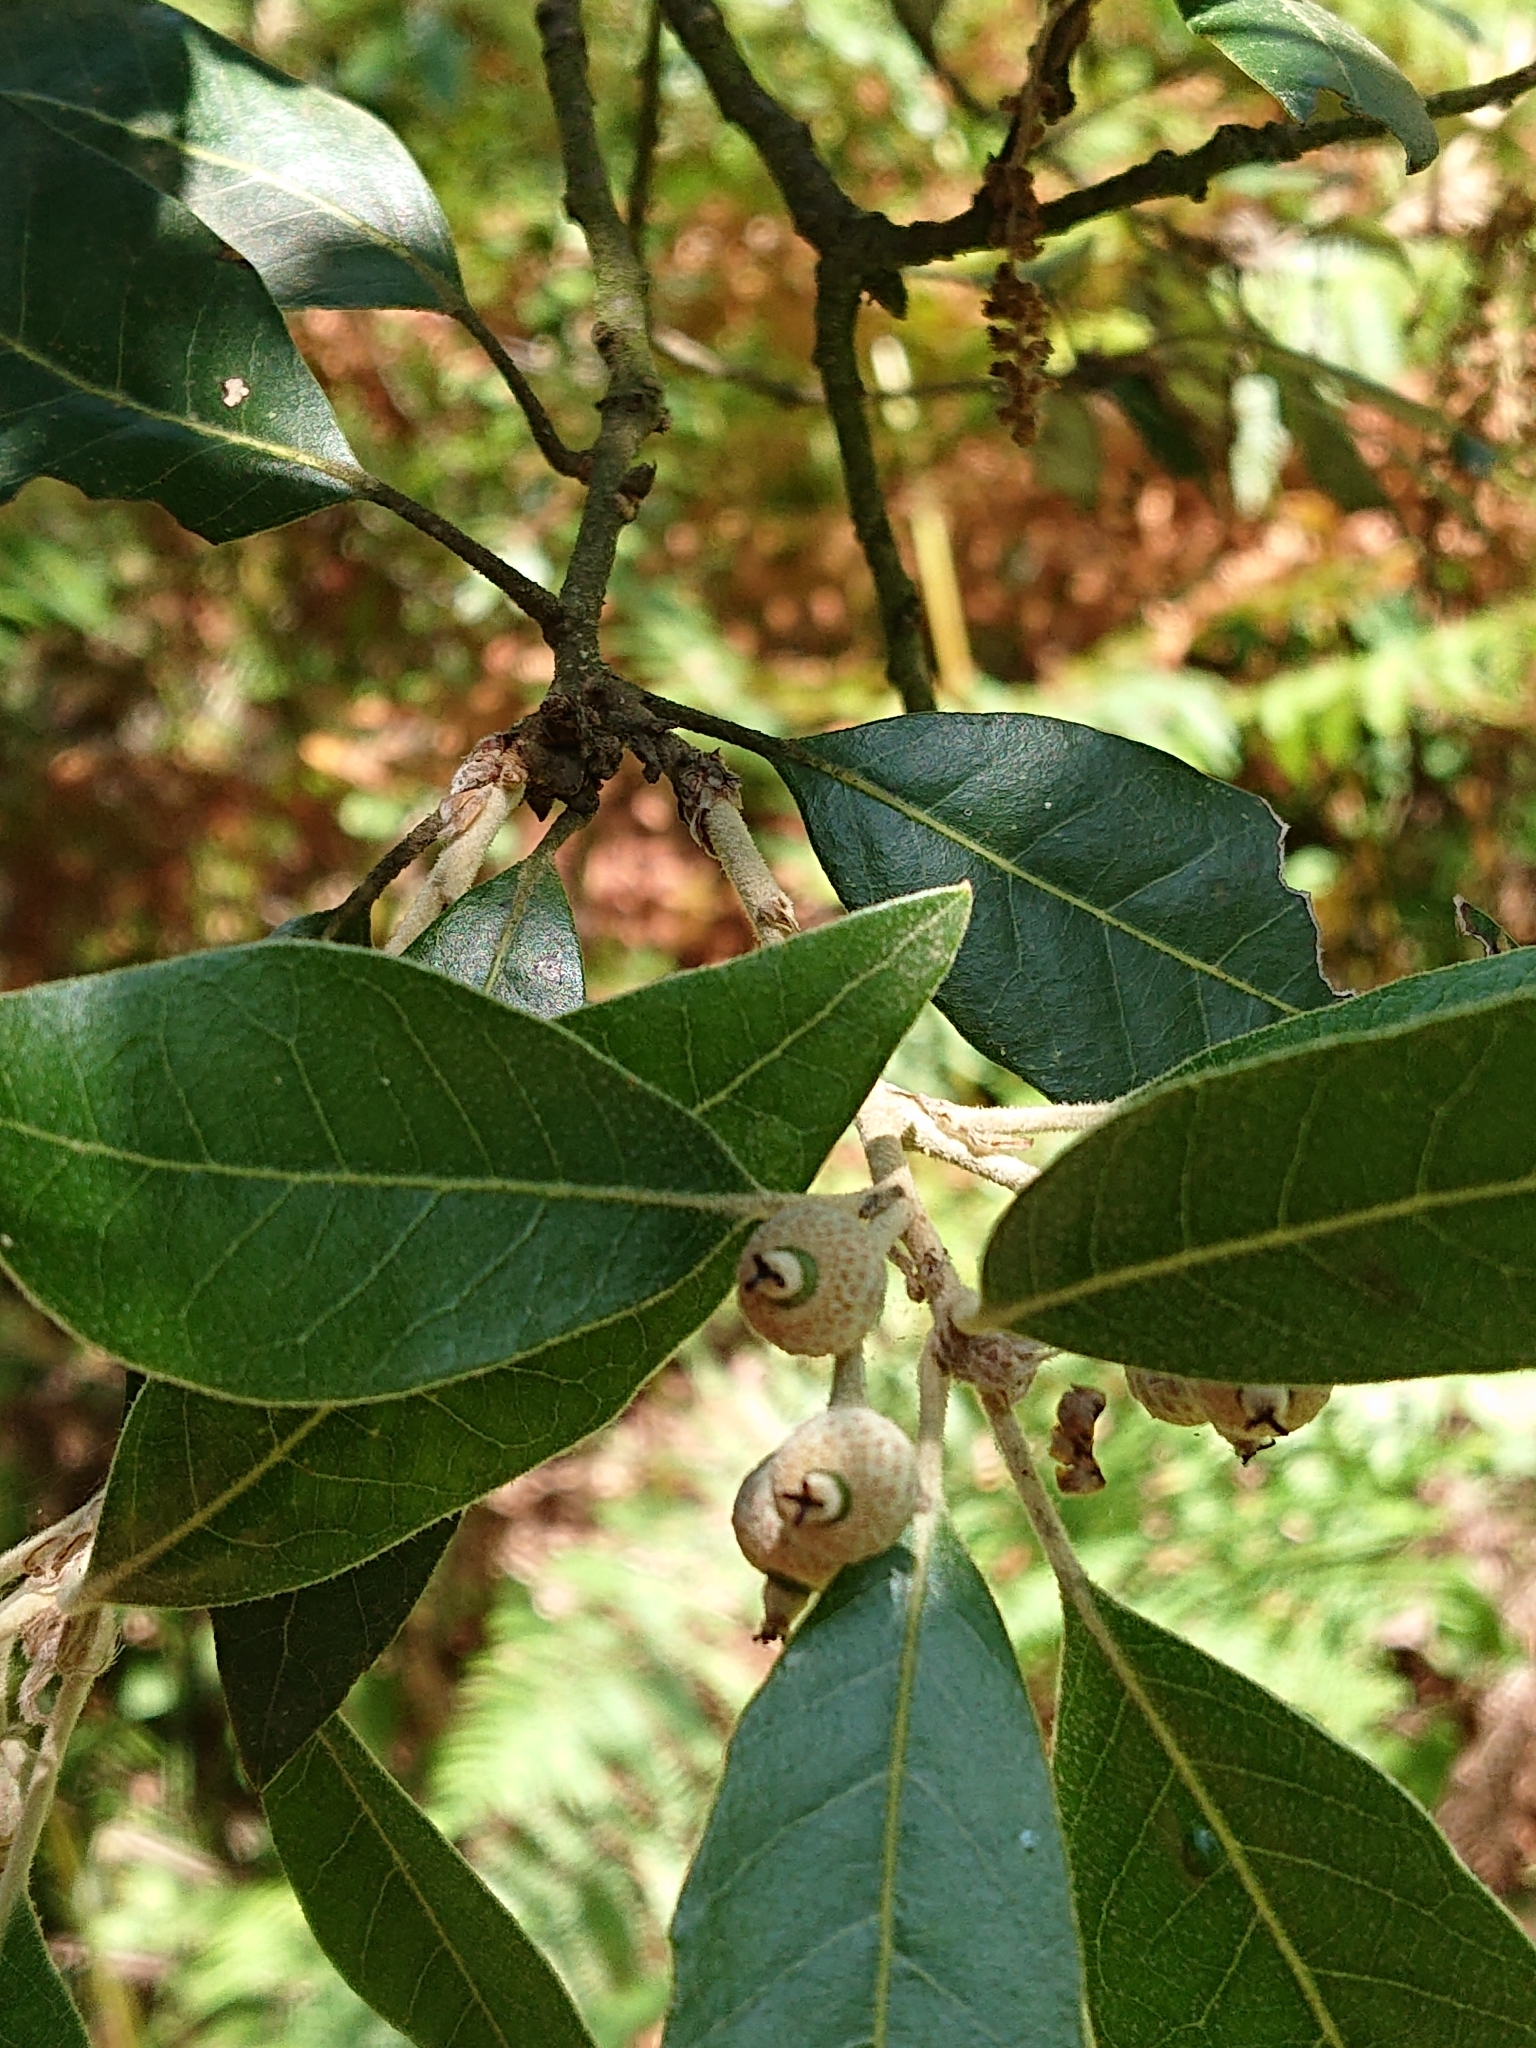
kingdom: Plantae
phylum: Tracheophyta
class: Magnoliopsida
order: Fagales
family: Fagaceae
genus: Quercus
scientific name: Quercus ilex
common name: Evergreen oak
